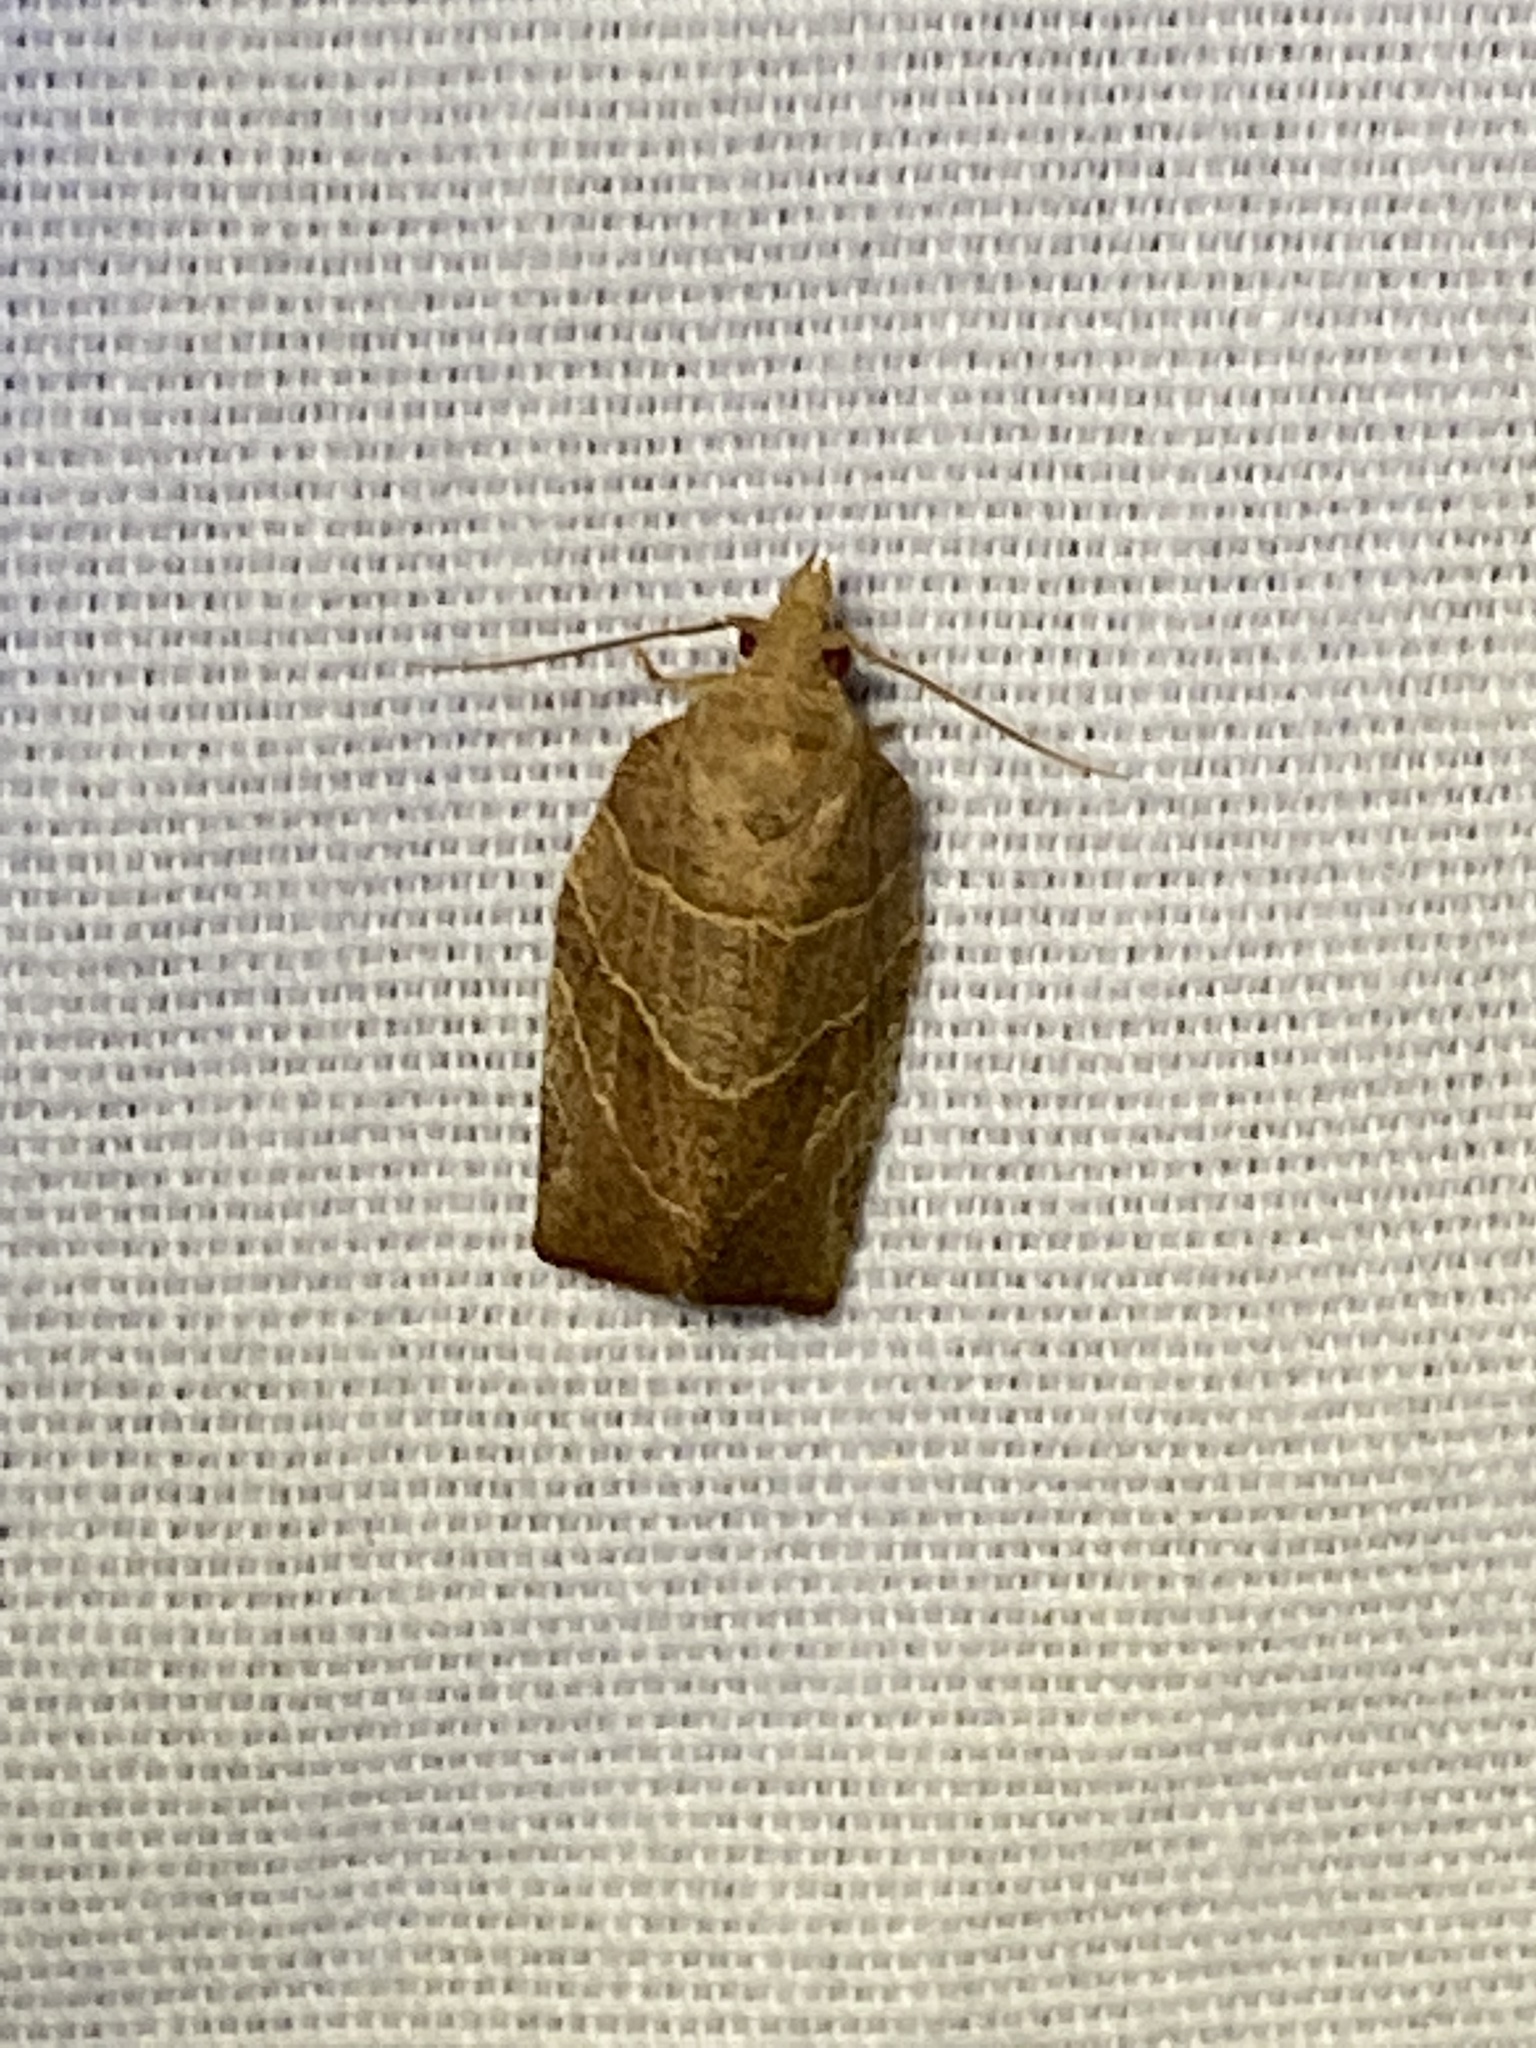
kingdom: Animalia
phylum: Arthropoda
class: Insecta
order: Lepidoptera
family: Tortricidae
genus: Pandemis
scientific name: Pandemis limitata
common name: Three-lined leafroller moth
